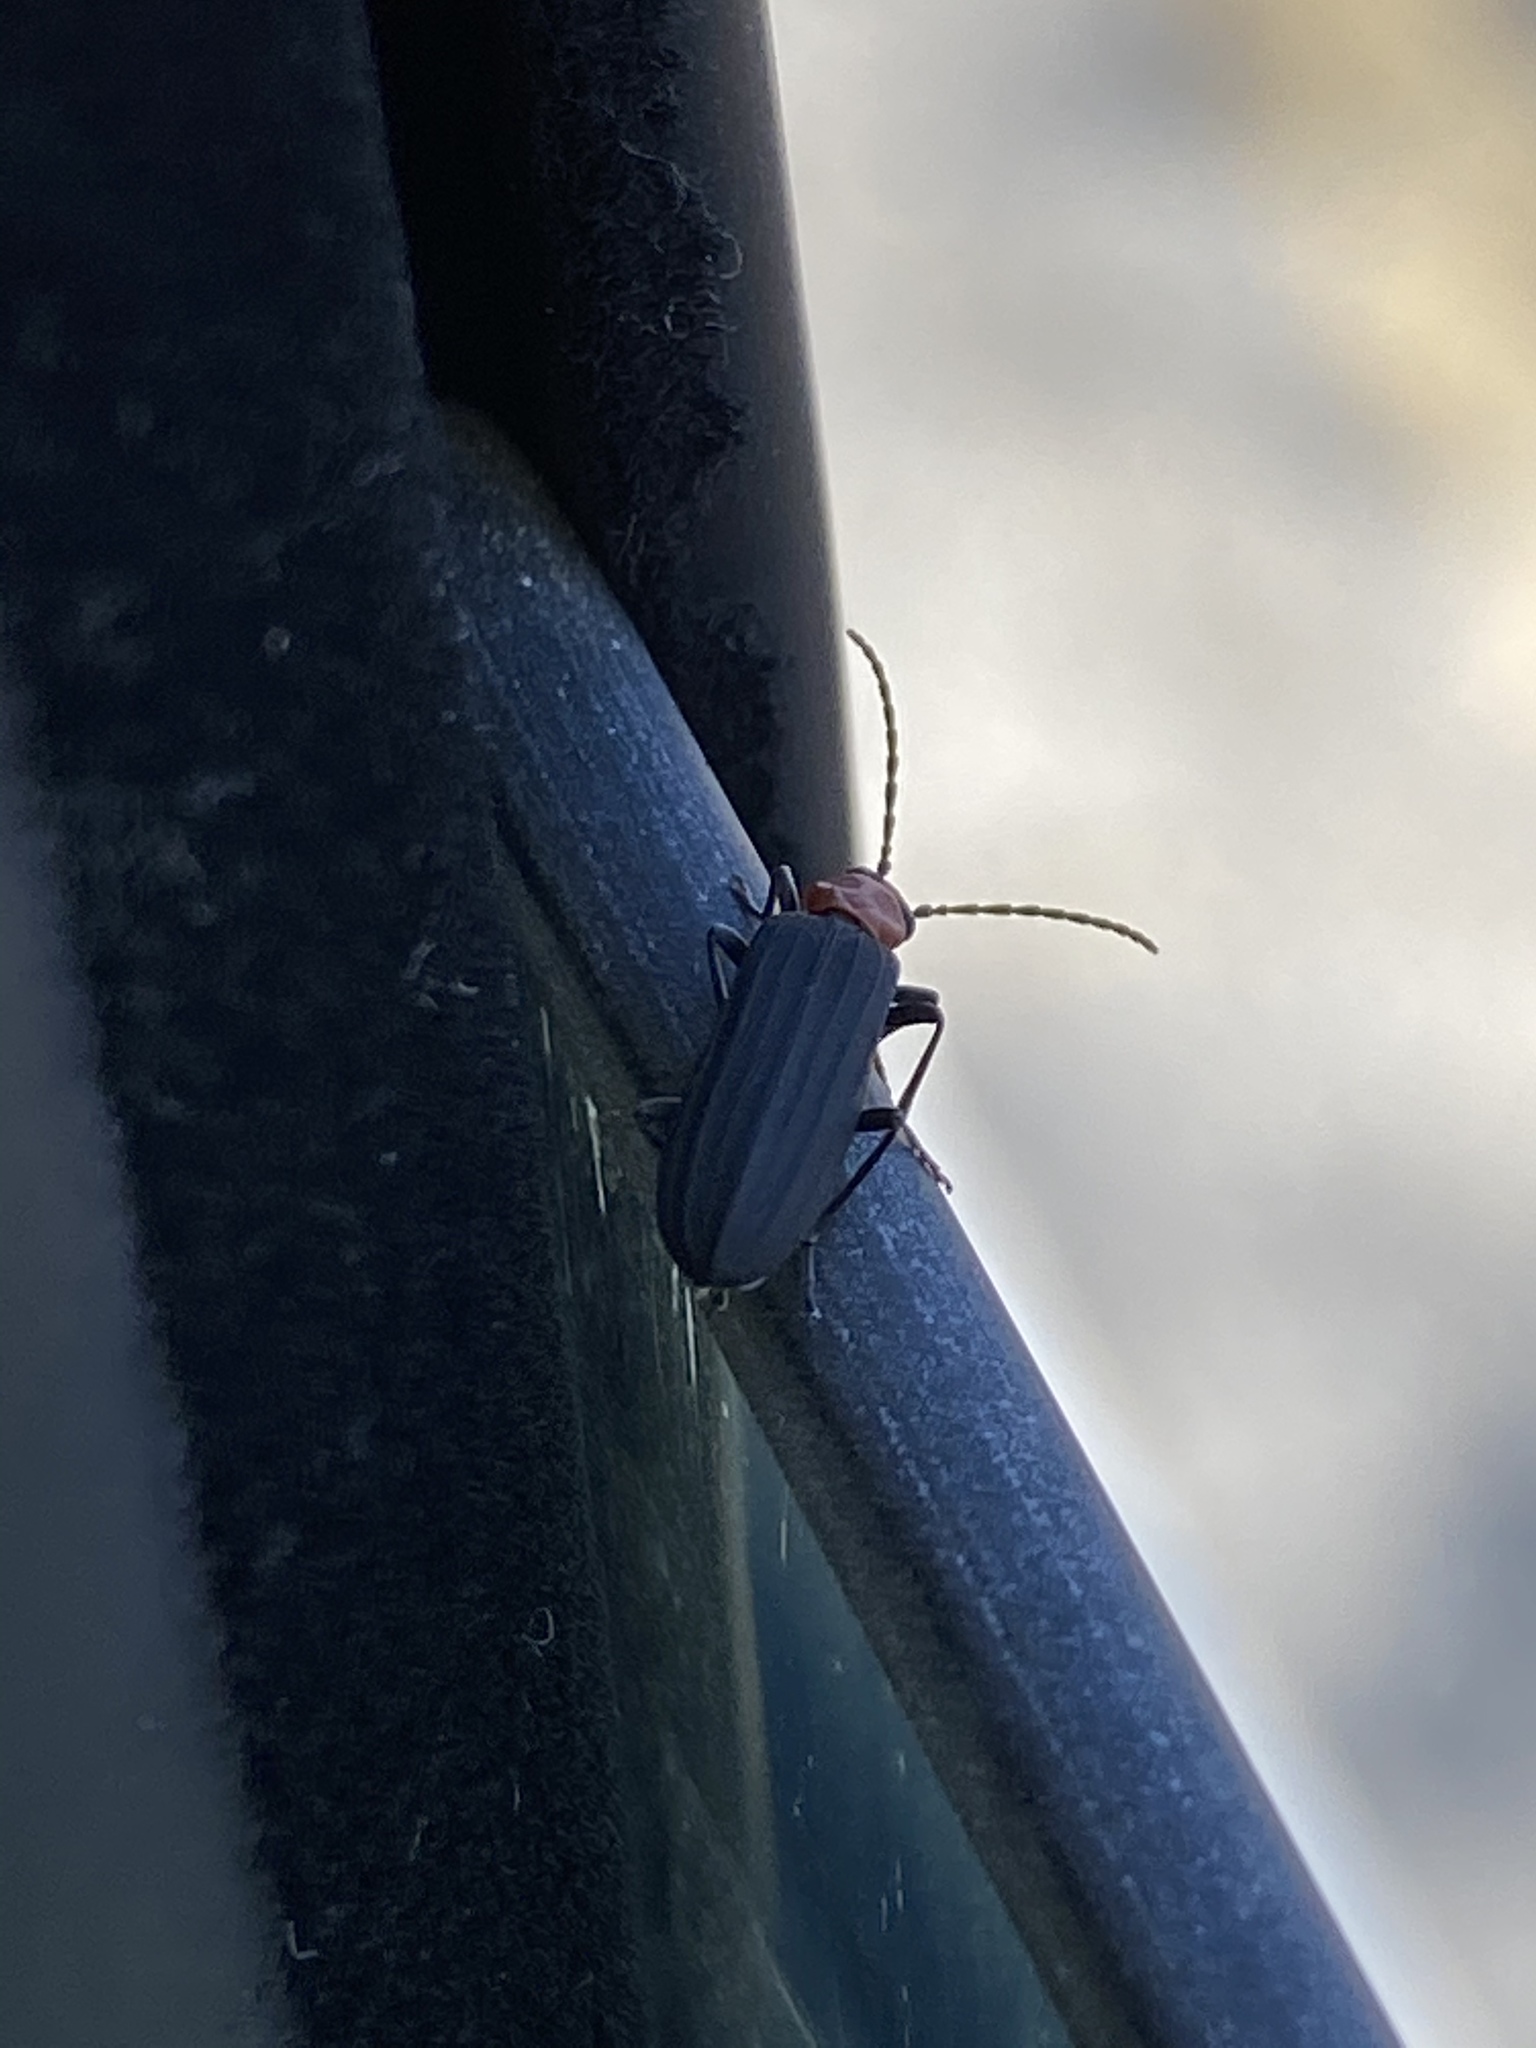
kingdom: Animalia
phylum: Arthropoda
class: Insecta
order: Coleoptera
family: Oedemeridae
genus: Ischnomera
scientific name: Ischnomera
